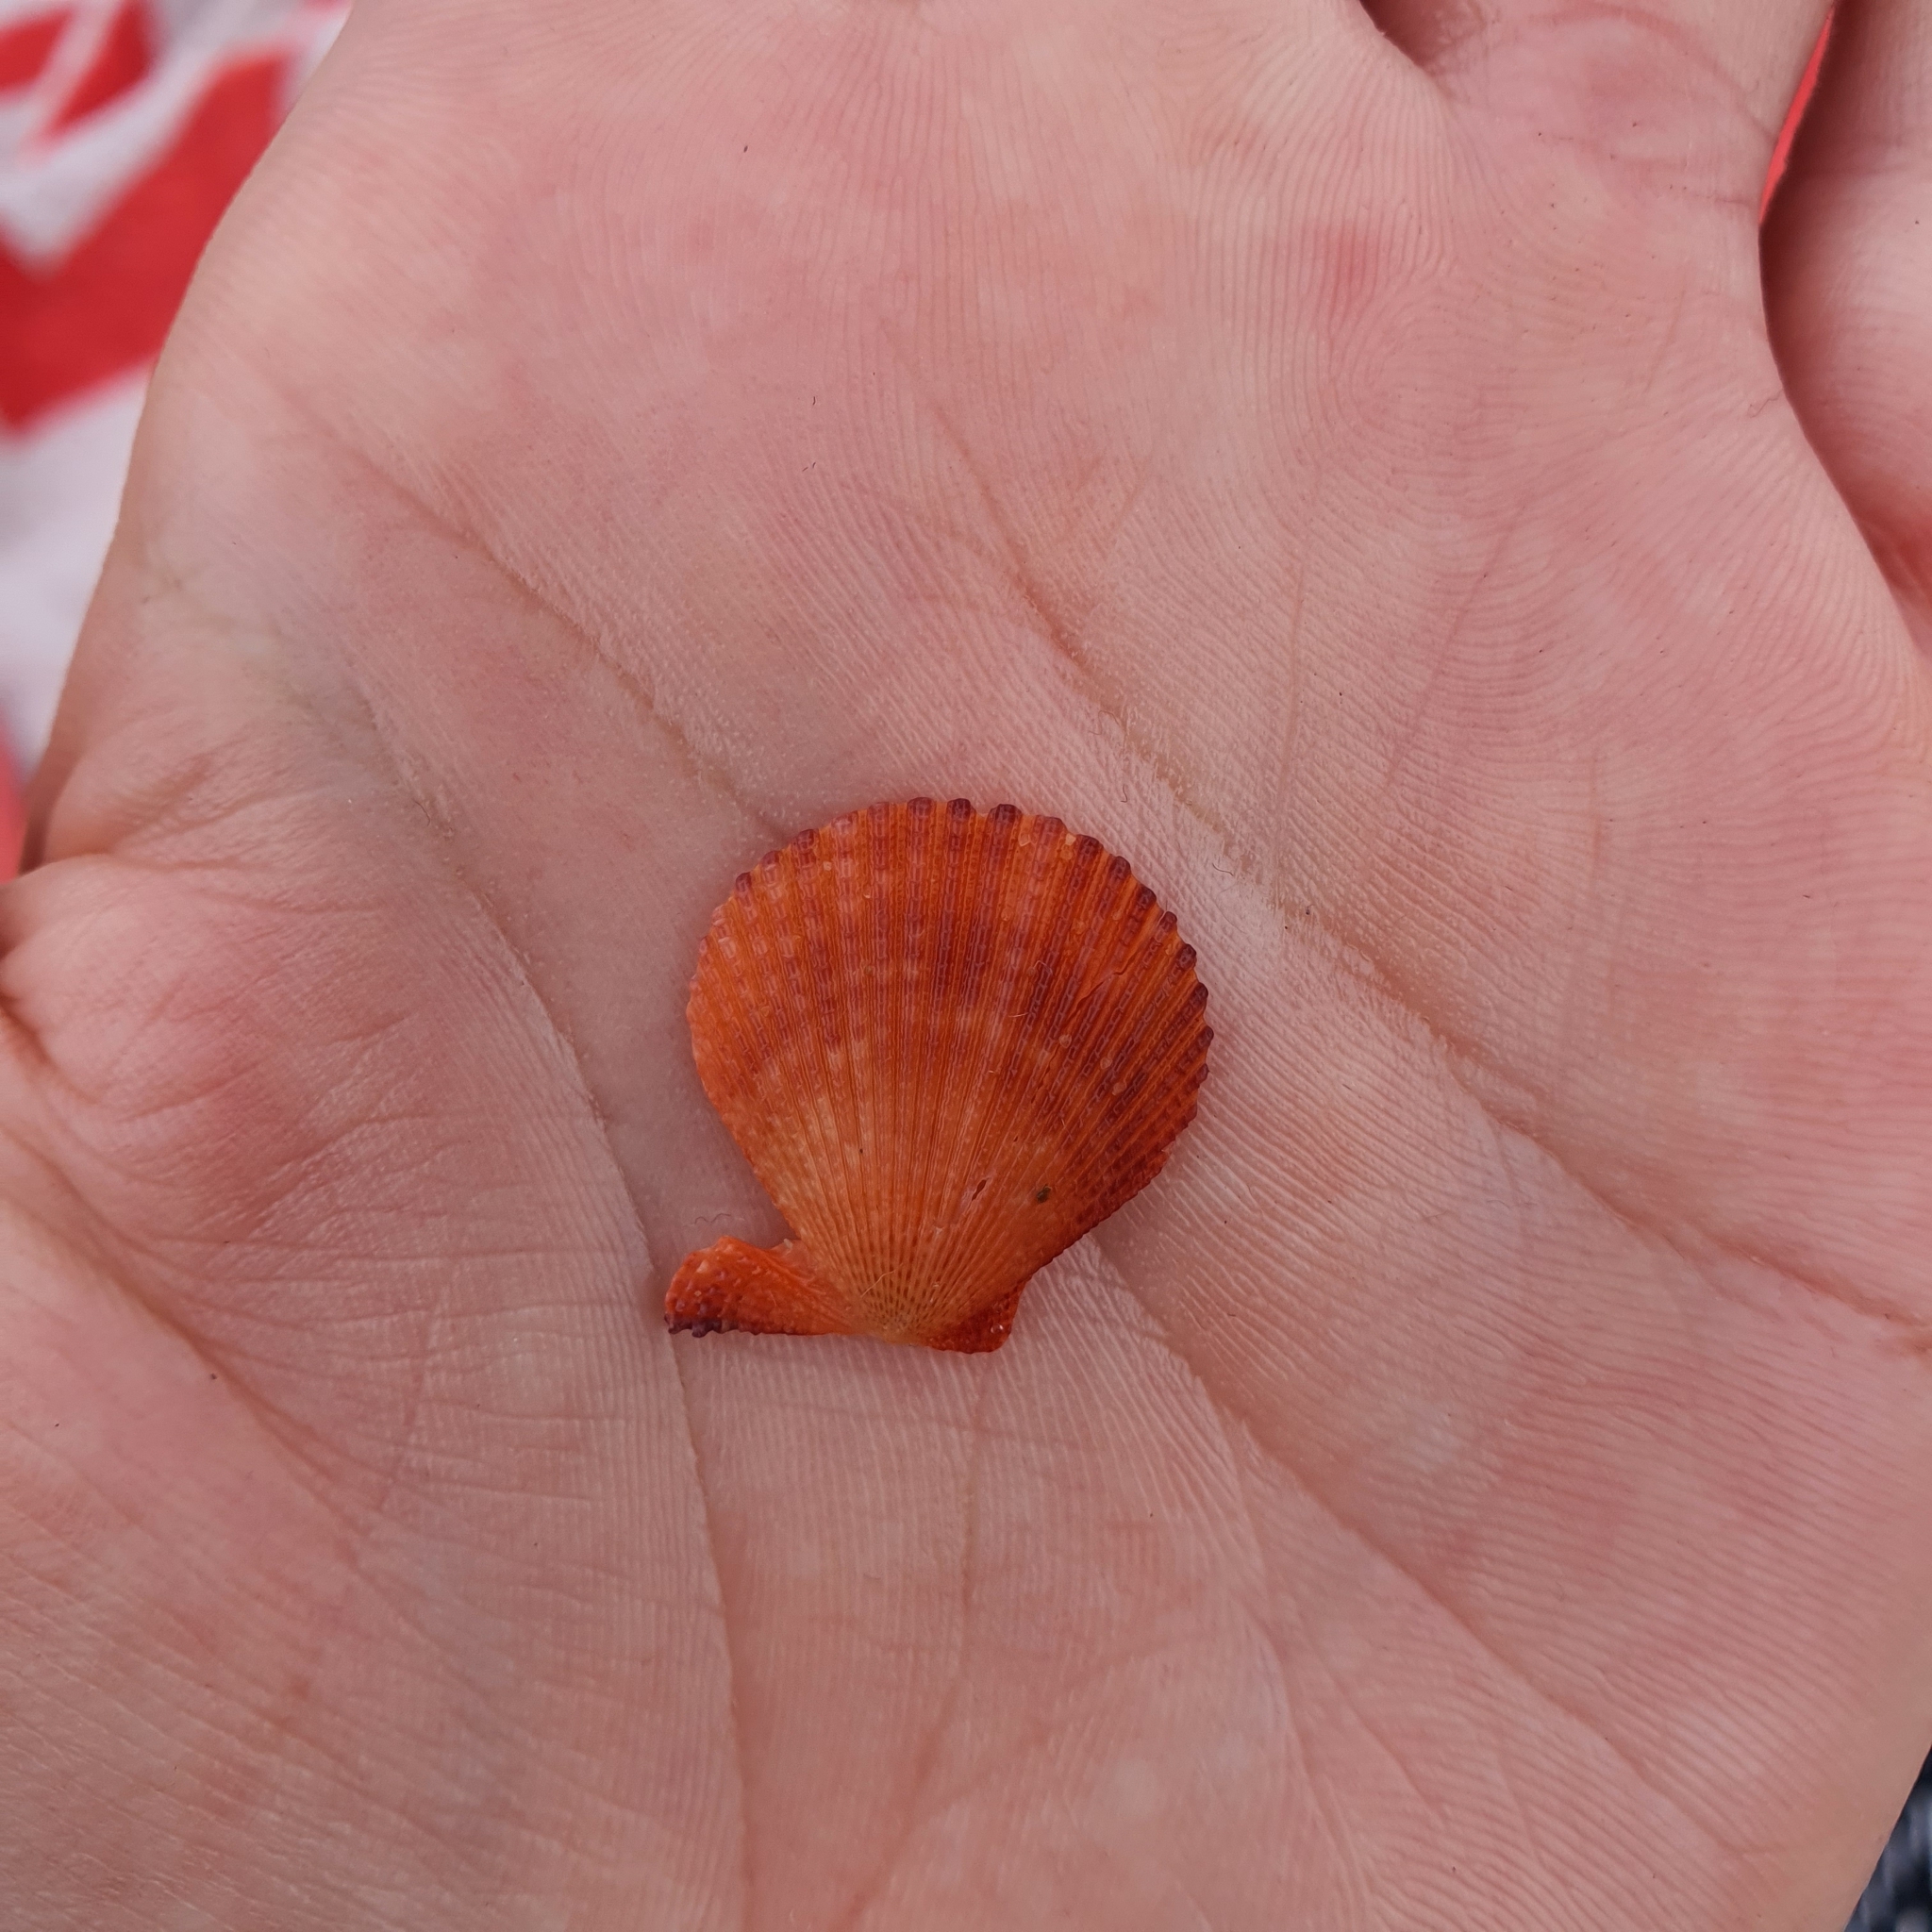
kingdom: Animalia
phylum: Mollusca
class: Bivalvia
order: Pectinida
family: Pectinidae
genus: Mimachlamys
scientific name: Mimachlamys asperrima
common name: Austral scallop
